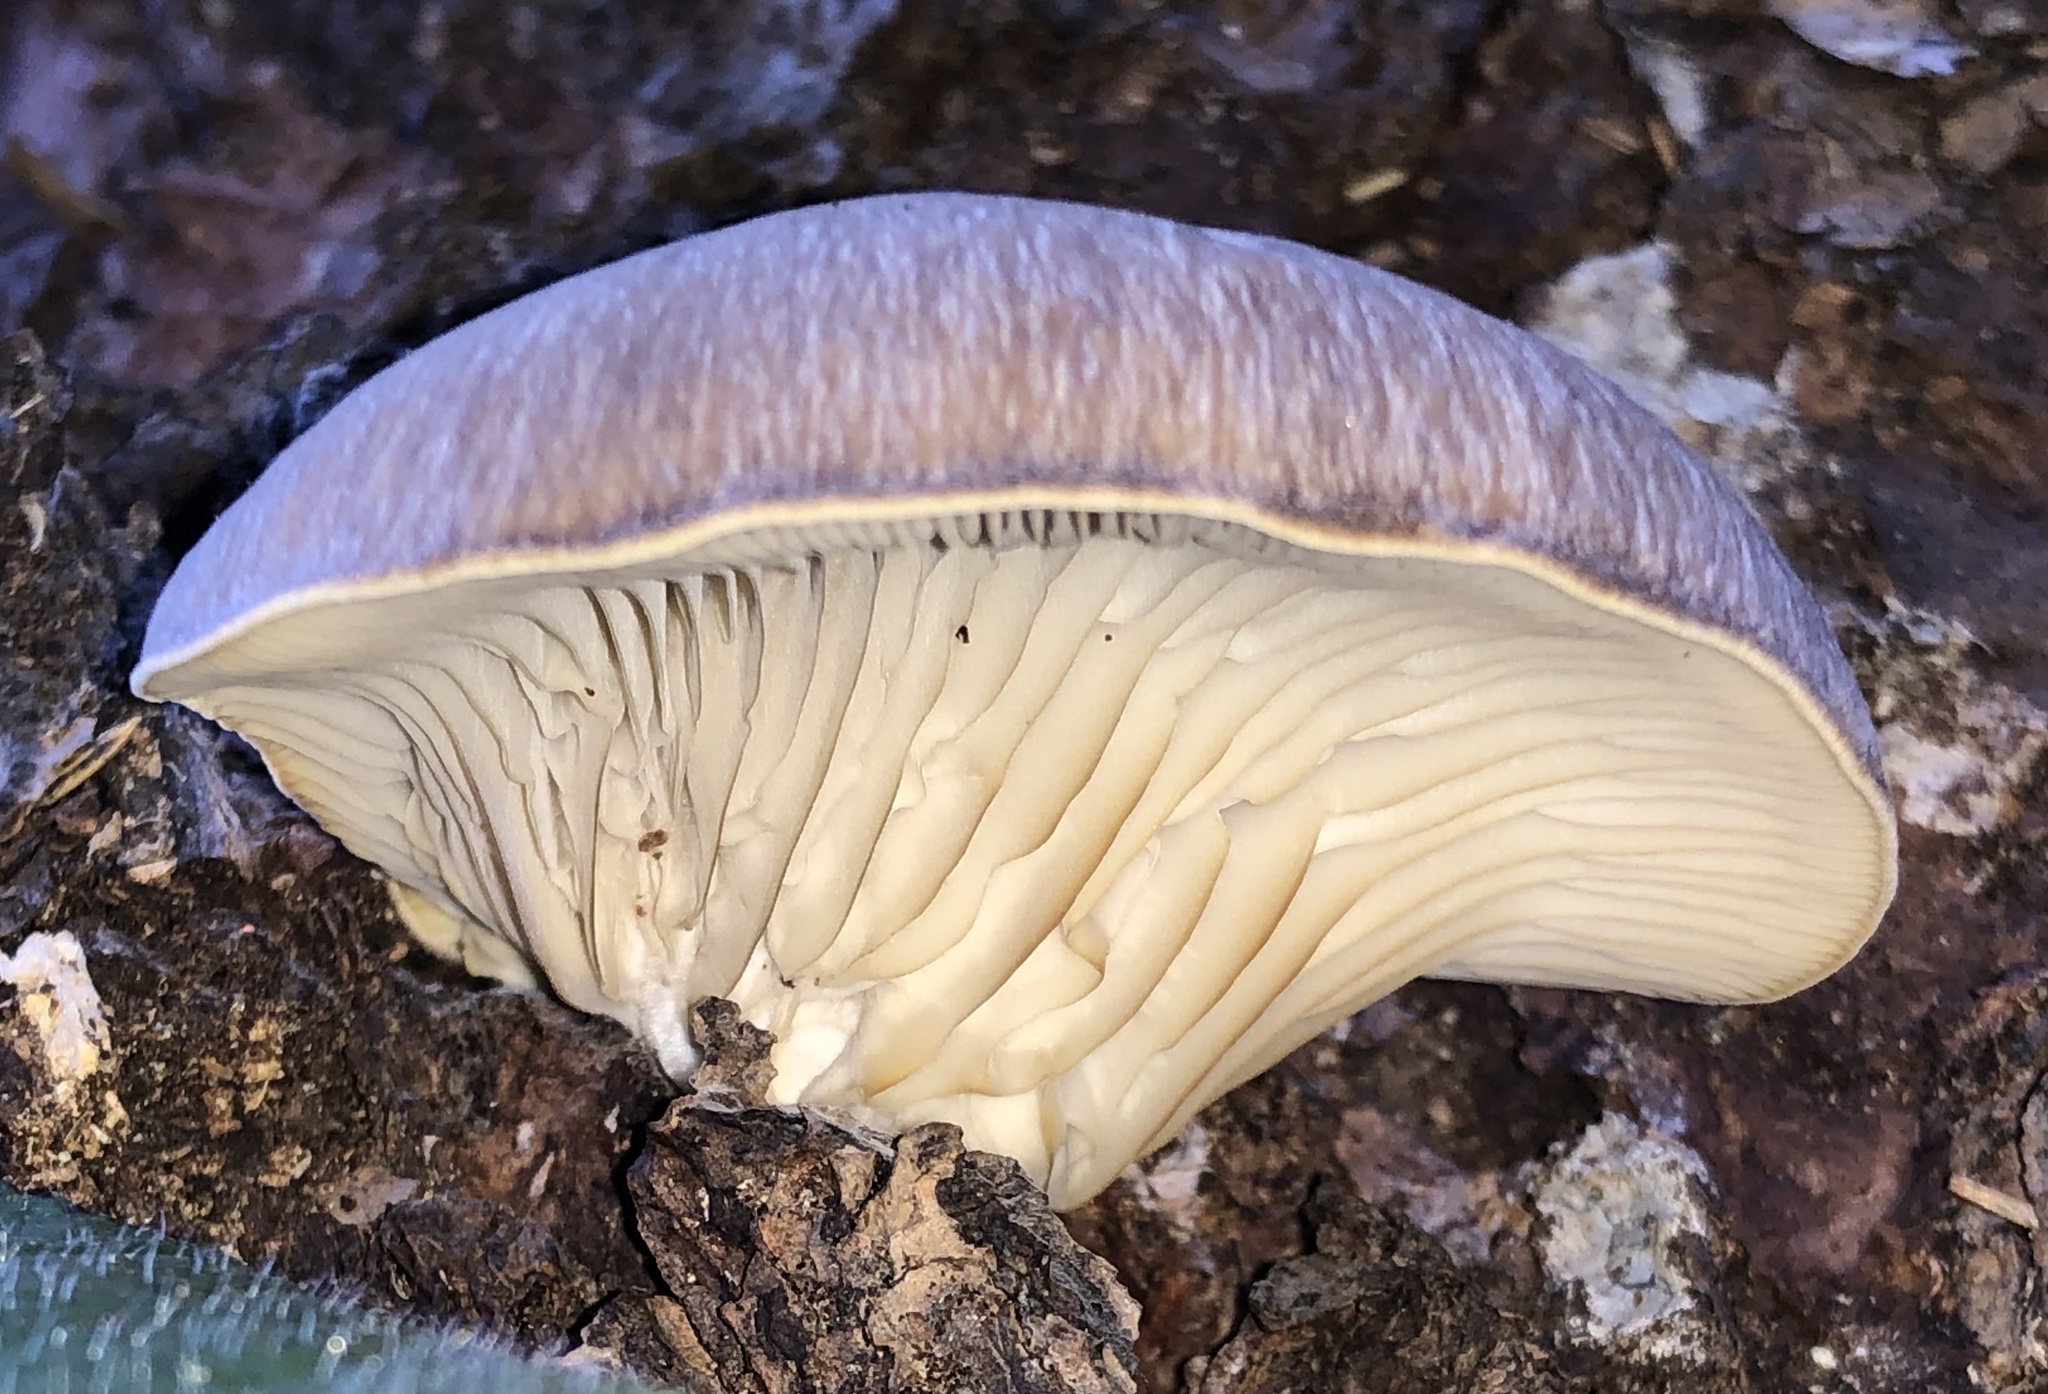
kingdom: Fungi
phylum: Basidiomycota
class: Agaricomycetes
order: Agaricales
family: Pleurotaceae
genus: Pleurotus
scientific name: Pleurotus ostreatus
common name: Oyster mushroom
